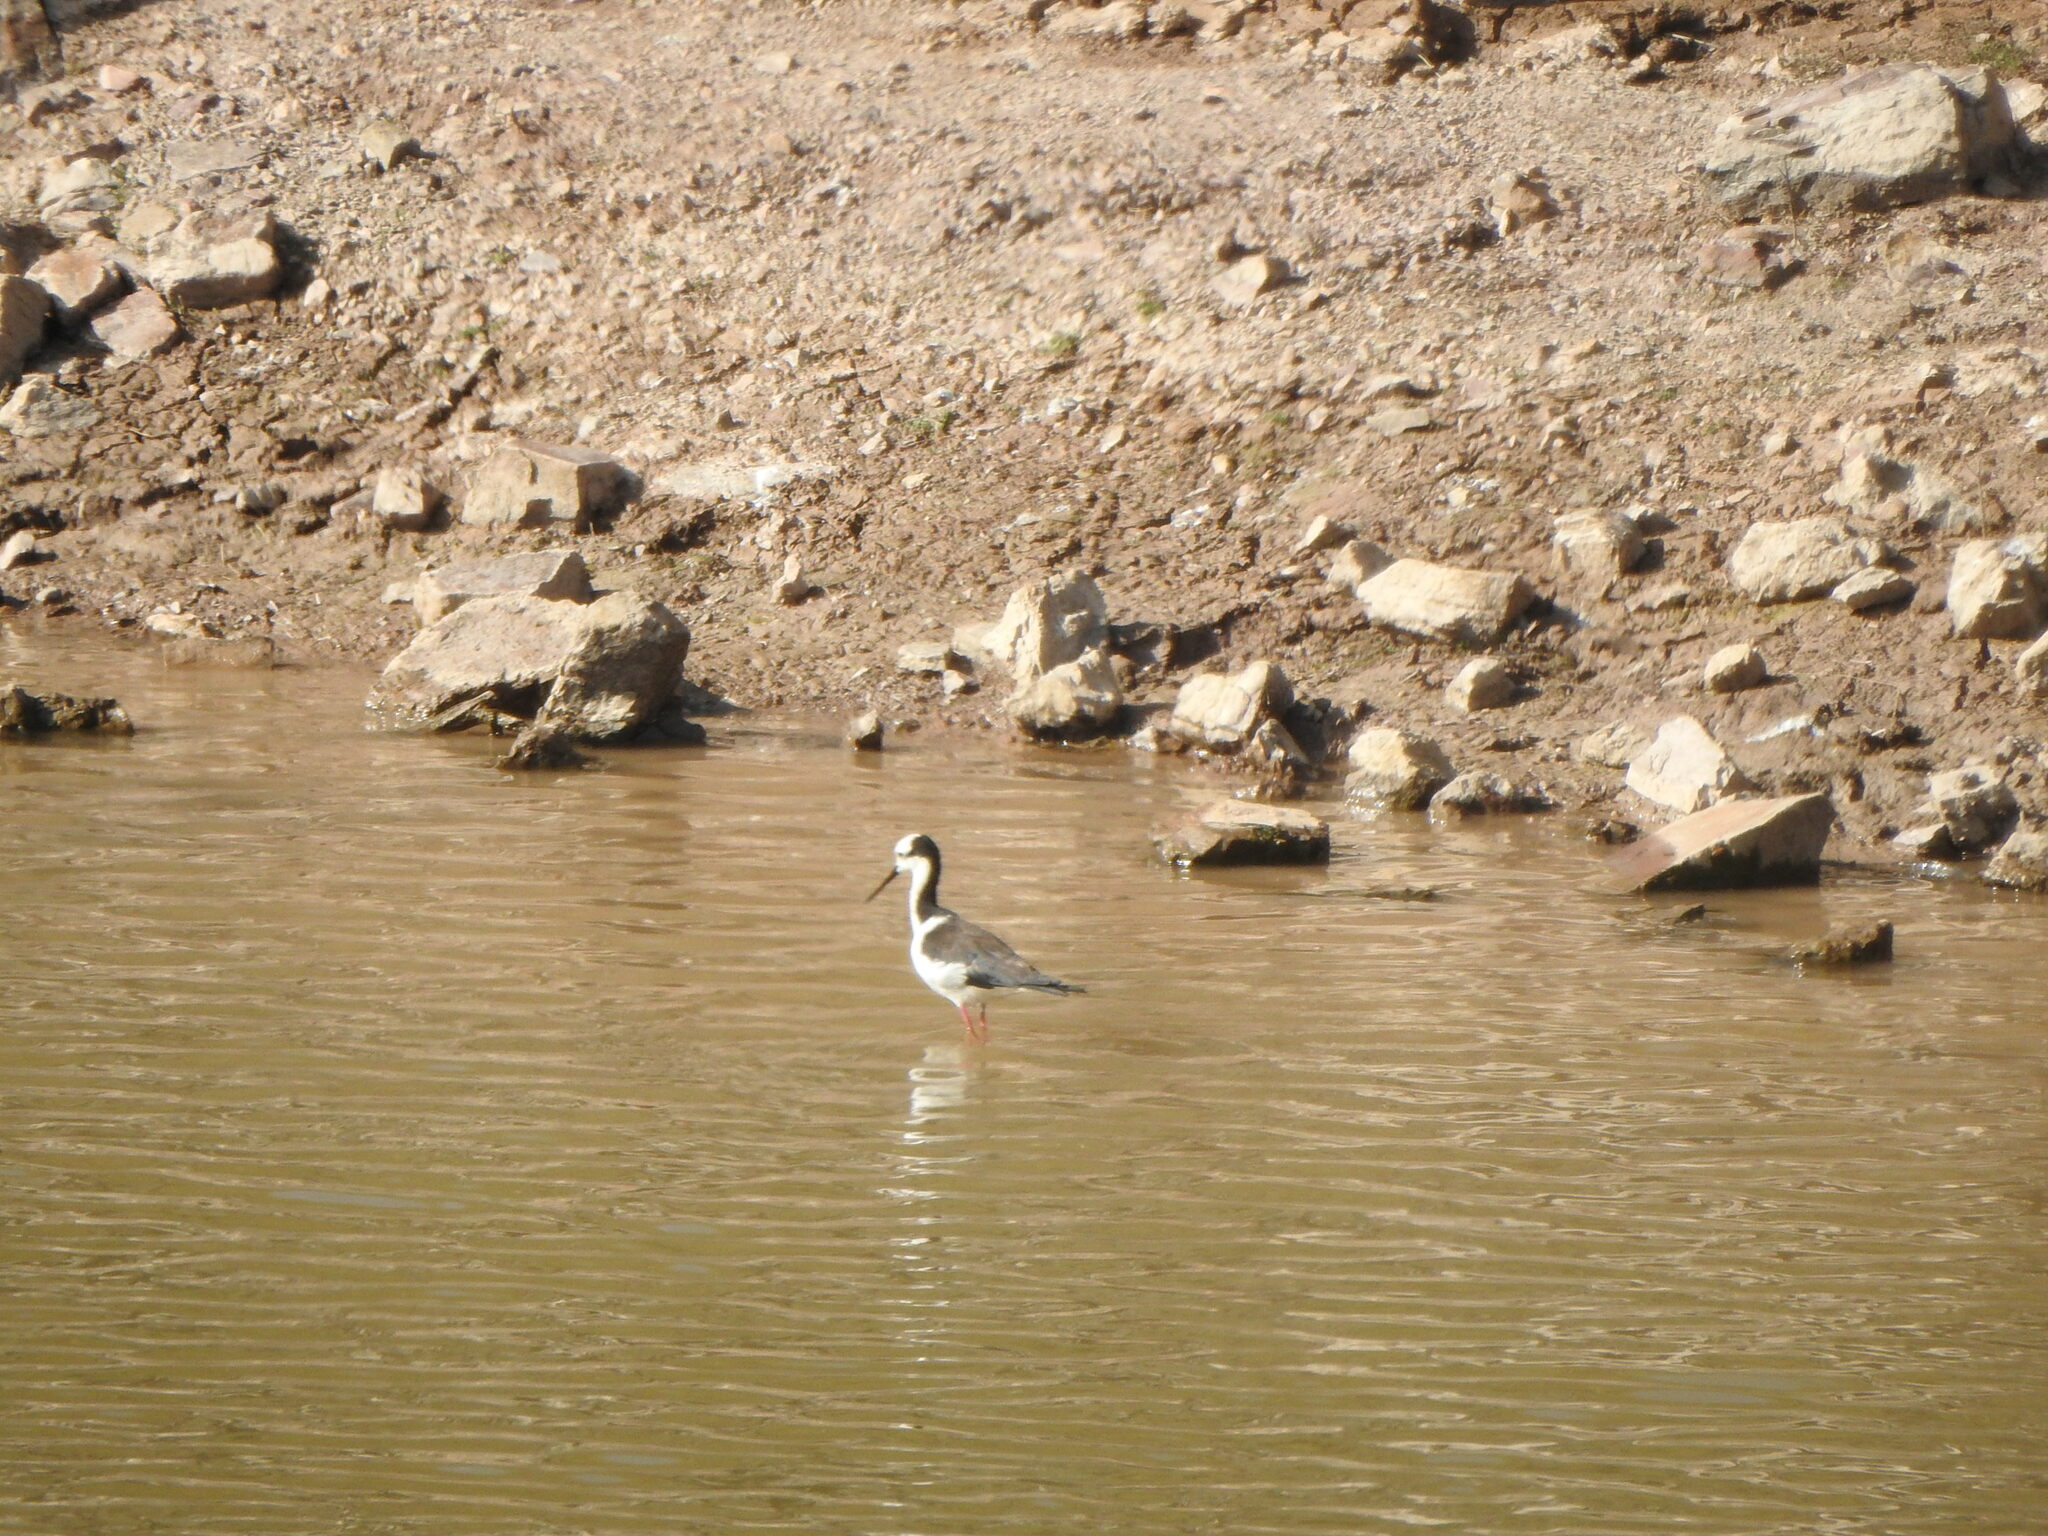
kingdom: Animalia
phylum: Chordata
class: Aves
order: Charadriiformes
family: Recurvirostridae
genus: Himantopus
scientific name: Himantopus mexicanus
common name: Black-necked stilt
